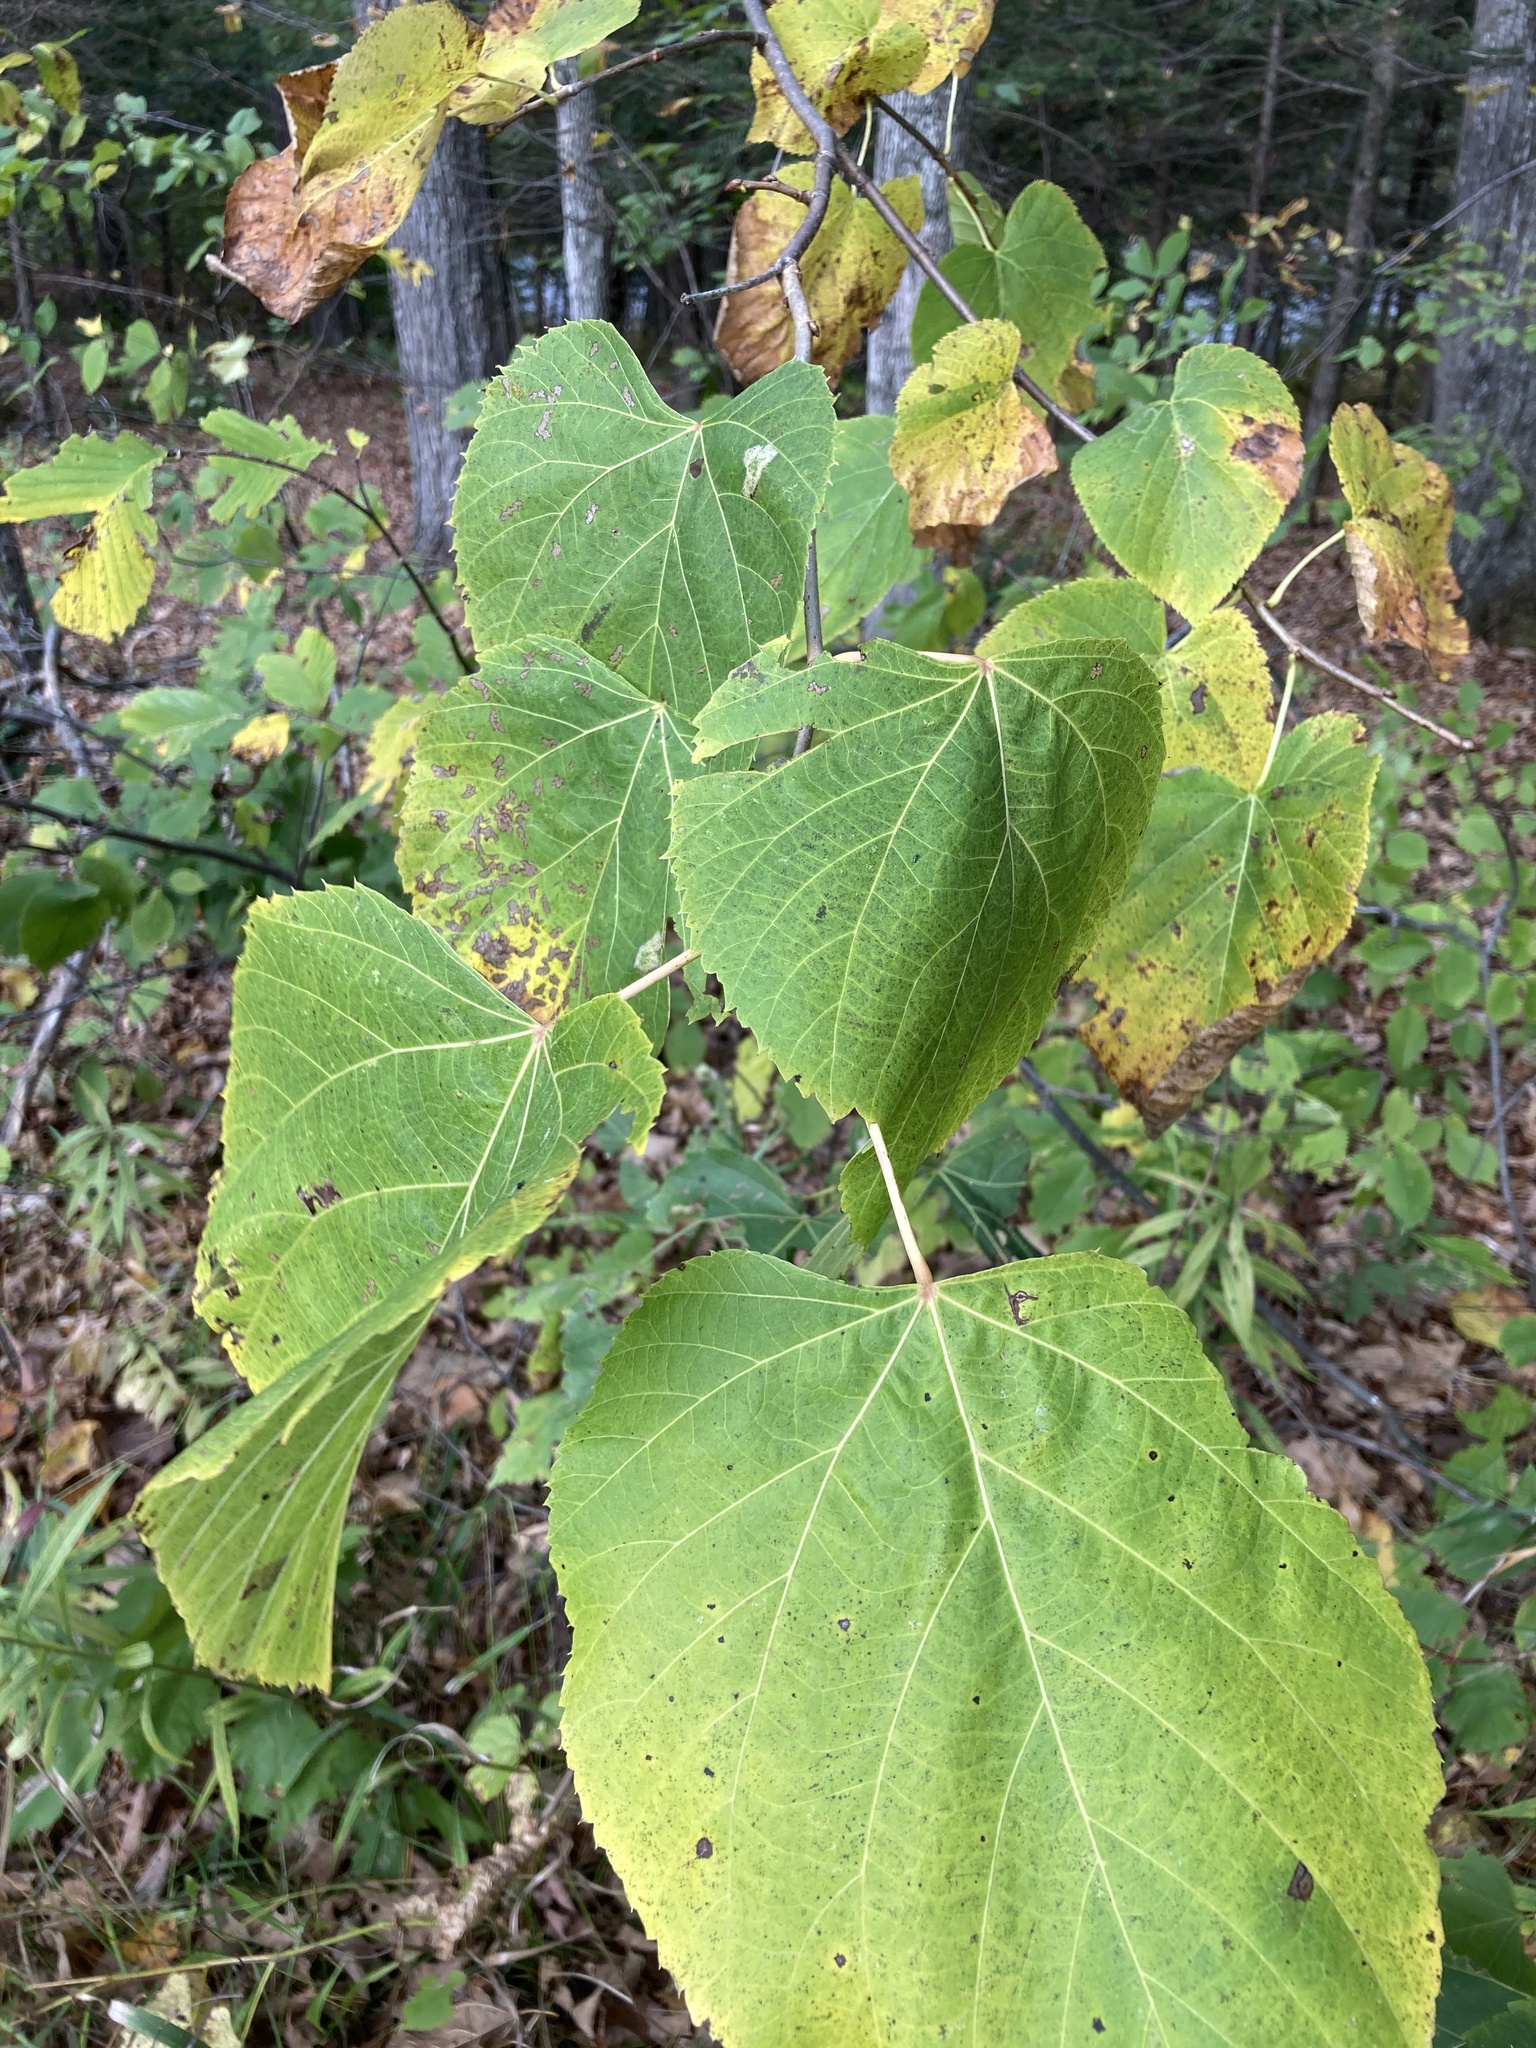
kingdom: Plantae
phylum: Tracheophyta
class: Magnoliopsida
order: Malvales
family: Malvaceae
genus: Tilia
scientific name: Tilia americana
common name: Basswood
